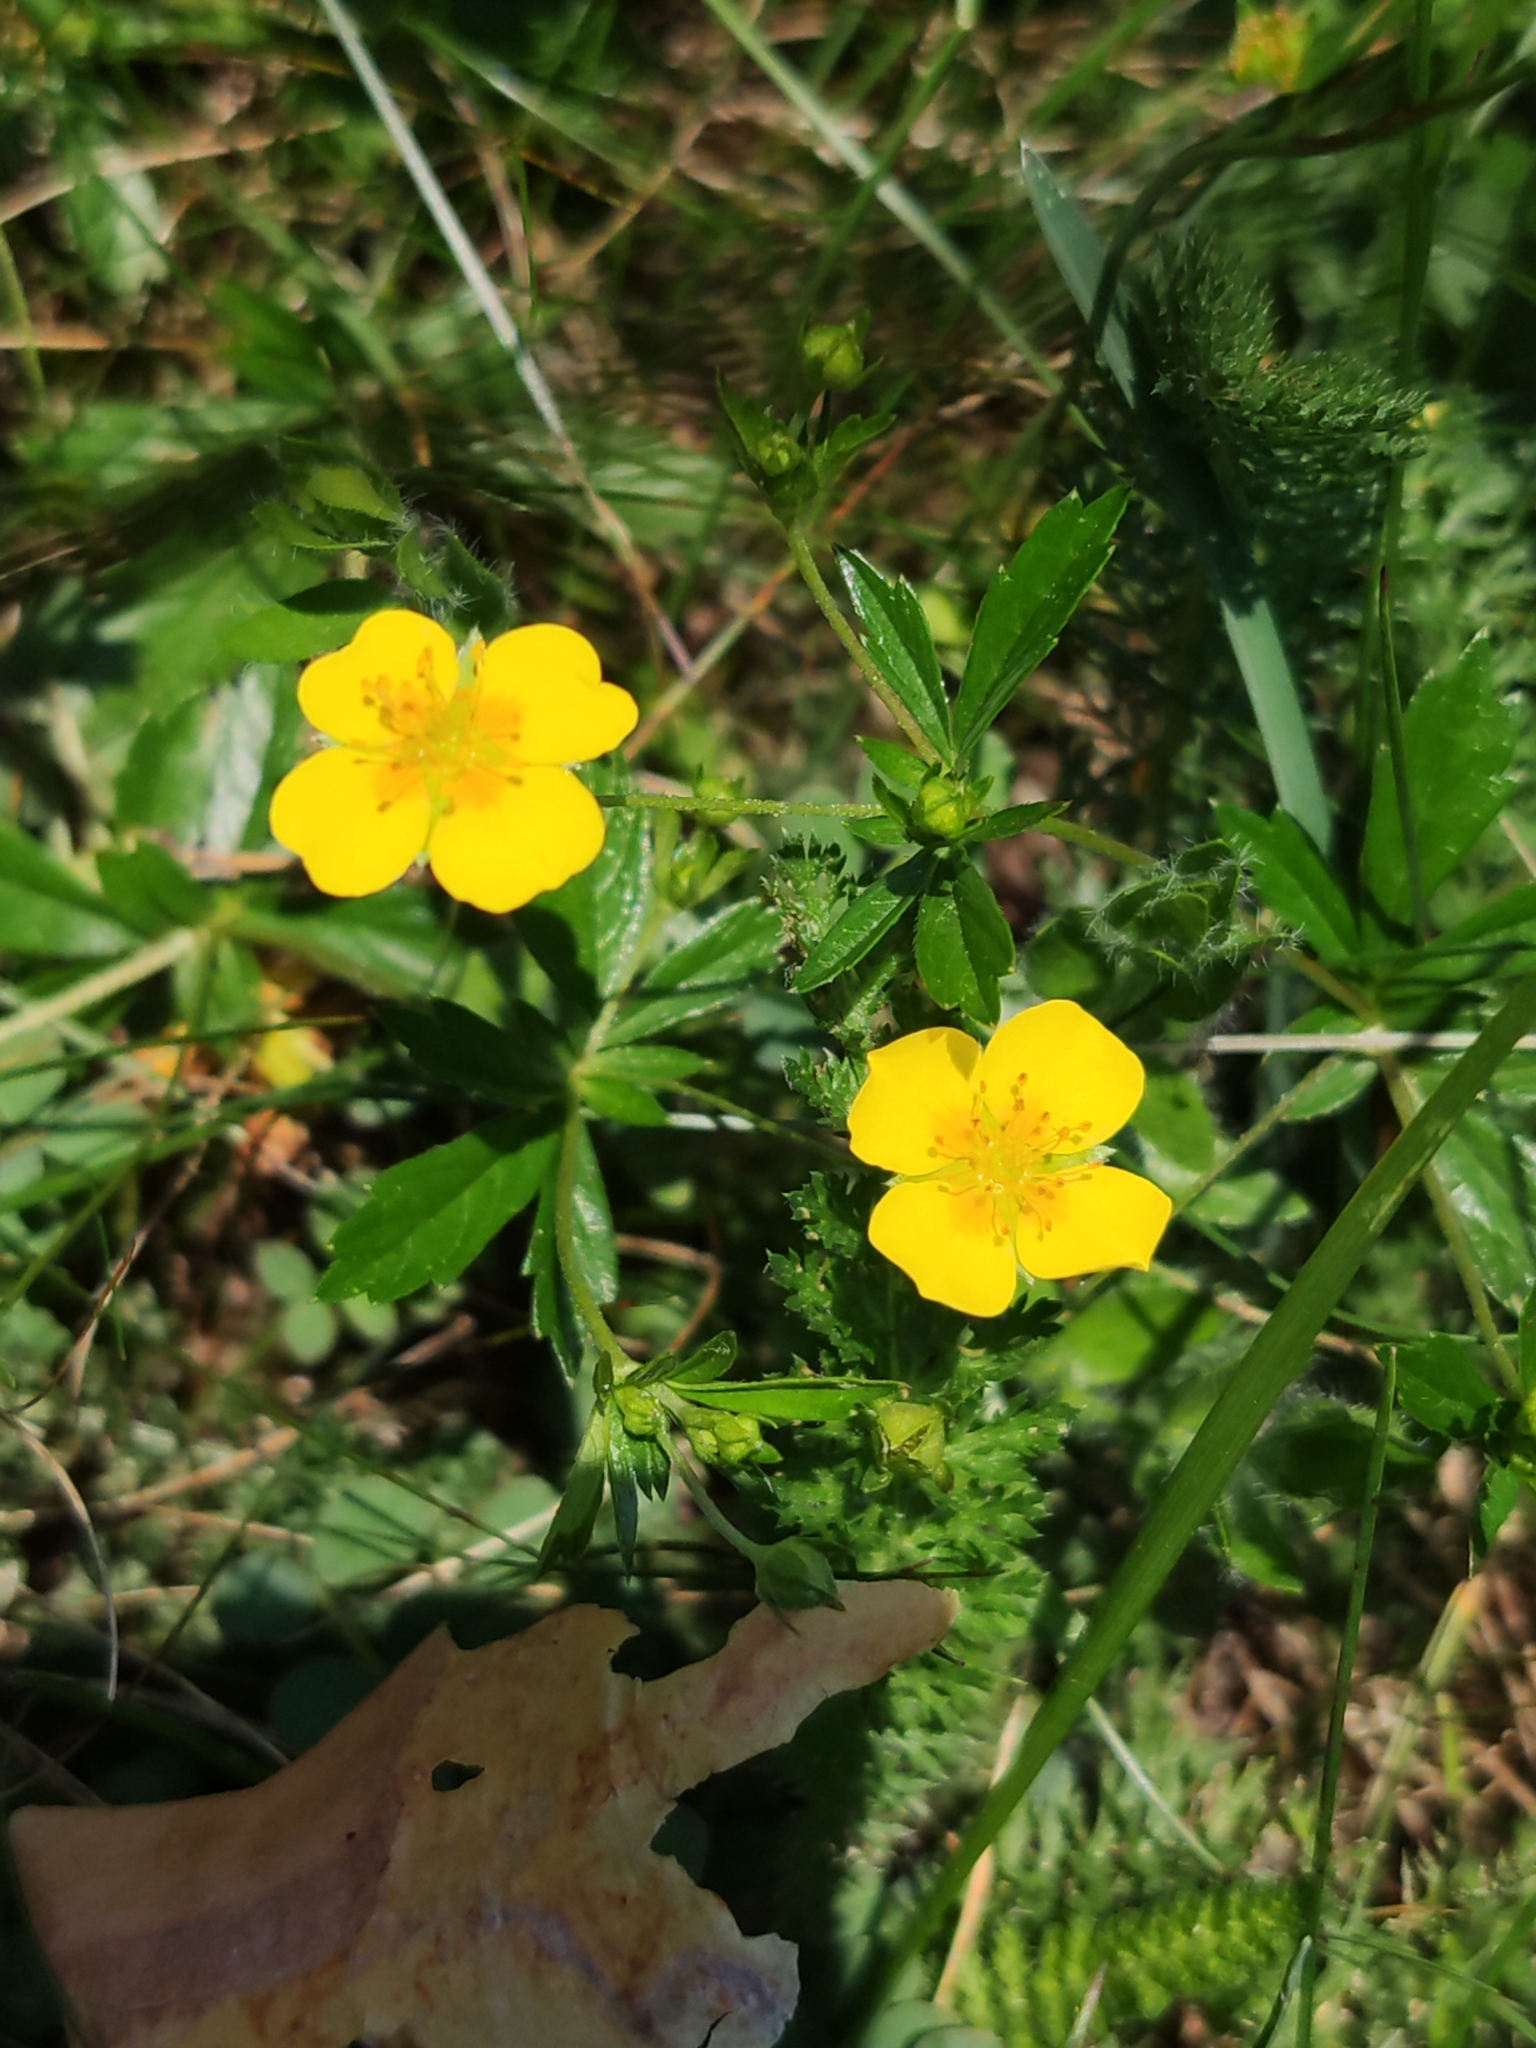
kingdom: Plantae
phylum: Tracheophyta
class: Magnoliopsida
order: Rosales
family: Rosaceae
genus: Potentilla
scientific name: Potentilla erecta
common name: Tormentil
